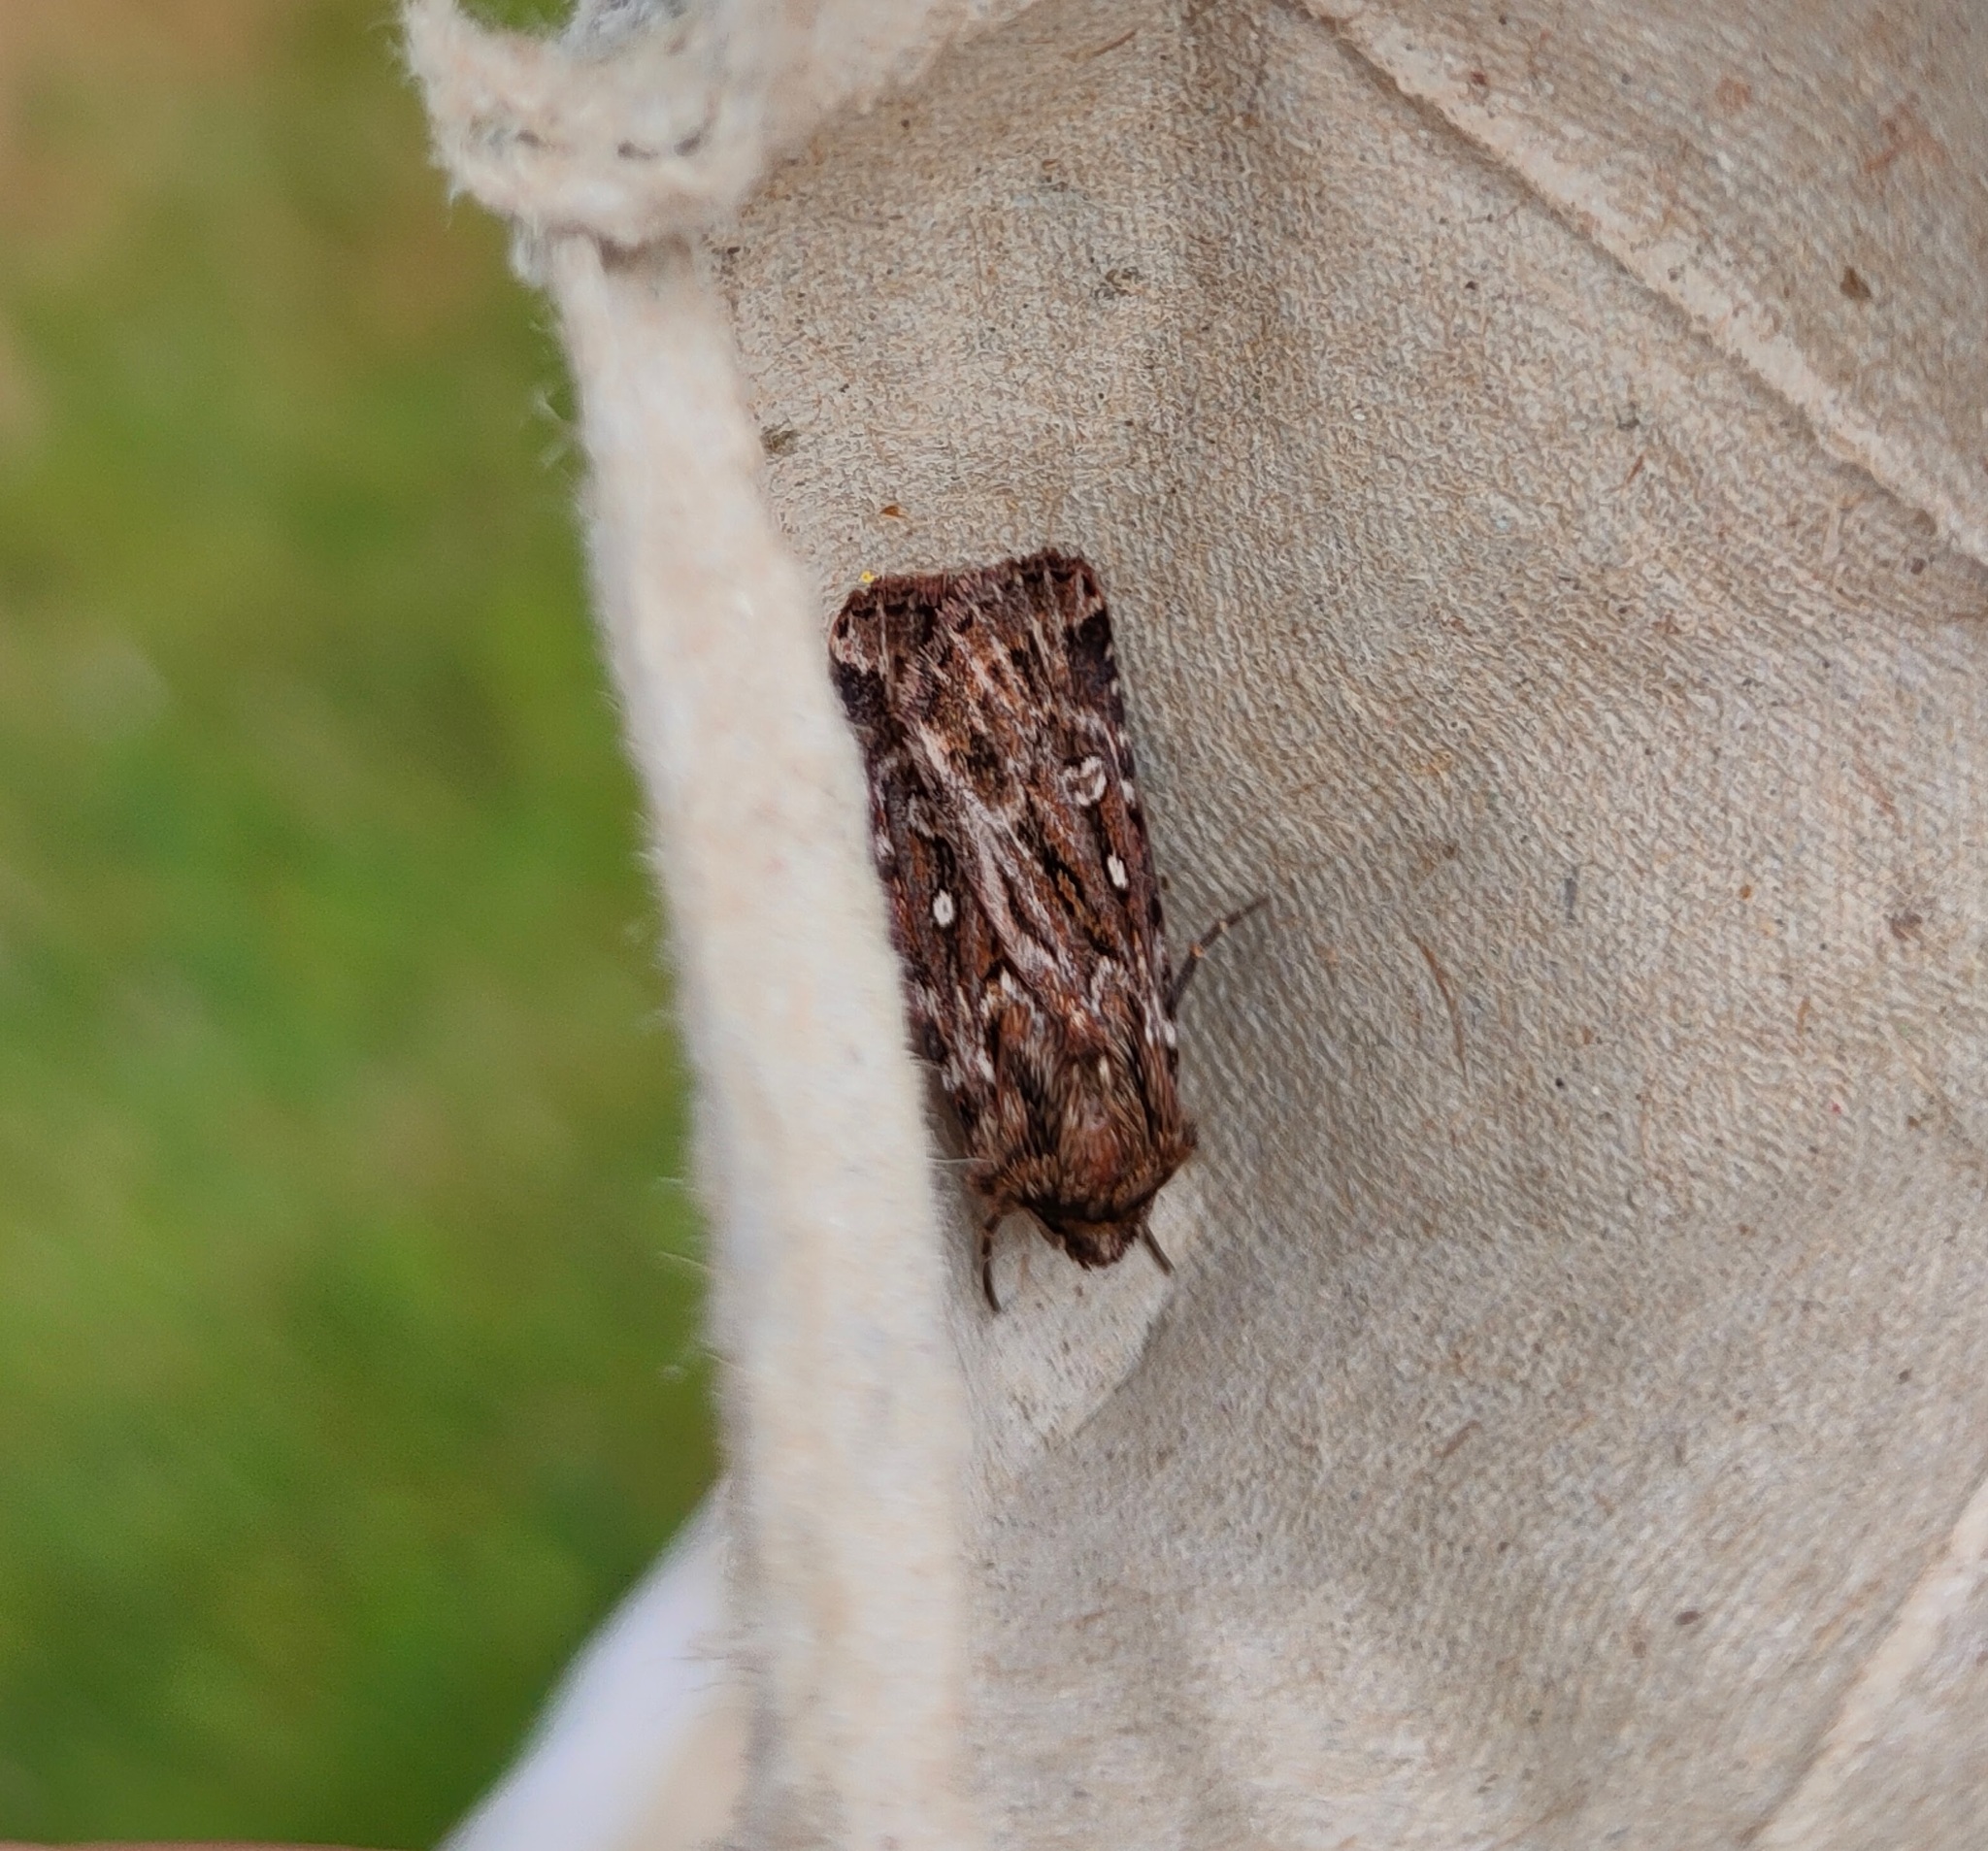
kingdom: Animalia
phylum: Arthropoda
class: Insecta
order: Lepidoptera
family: Noctuidae
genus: Lycophotia
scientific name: Lycophotia porphyrea
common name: True lover's knot
